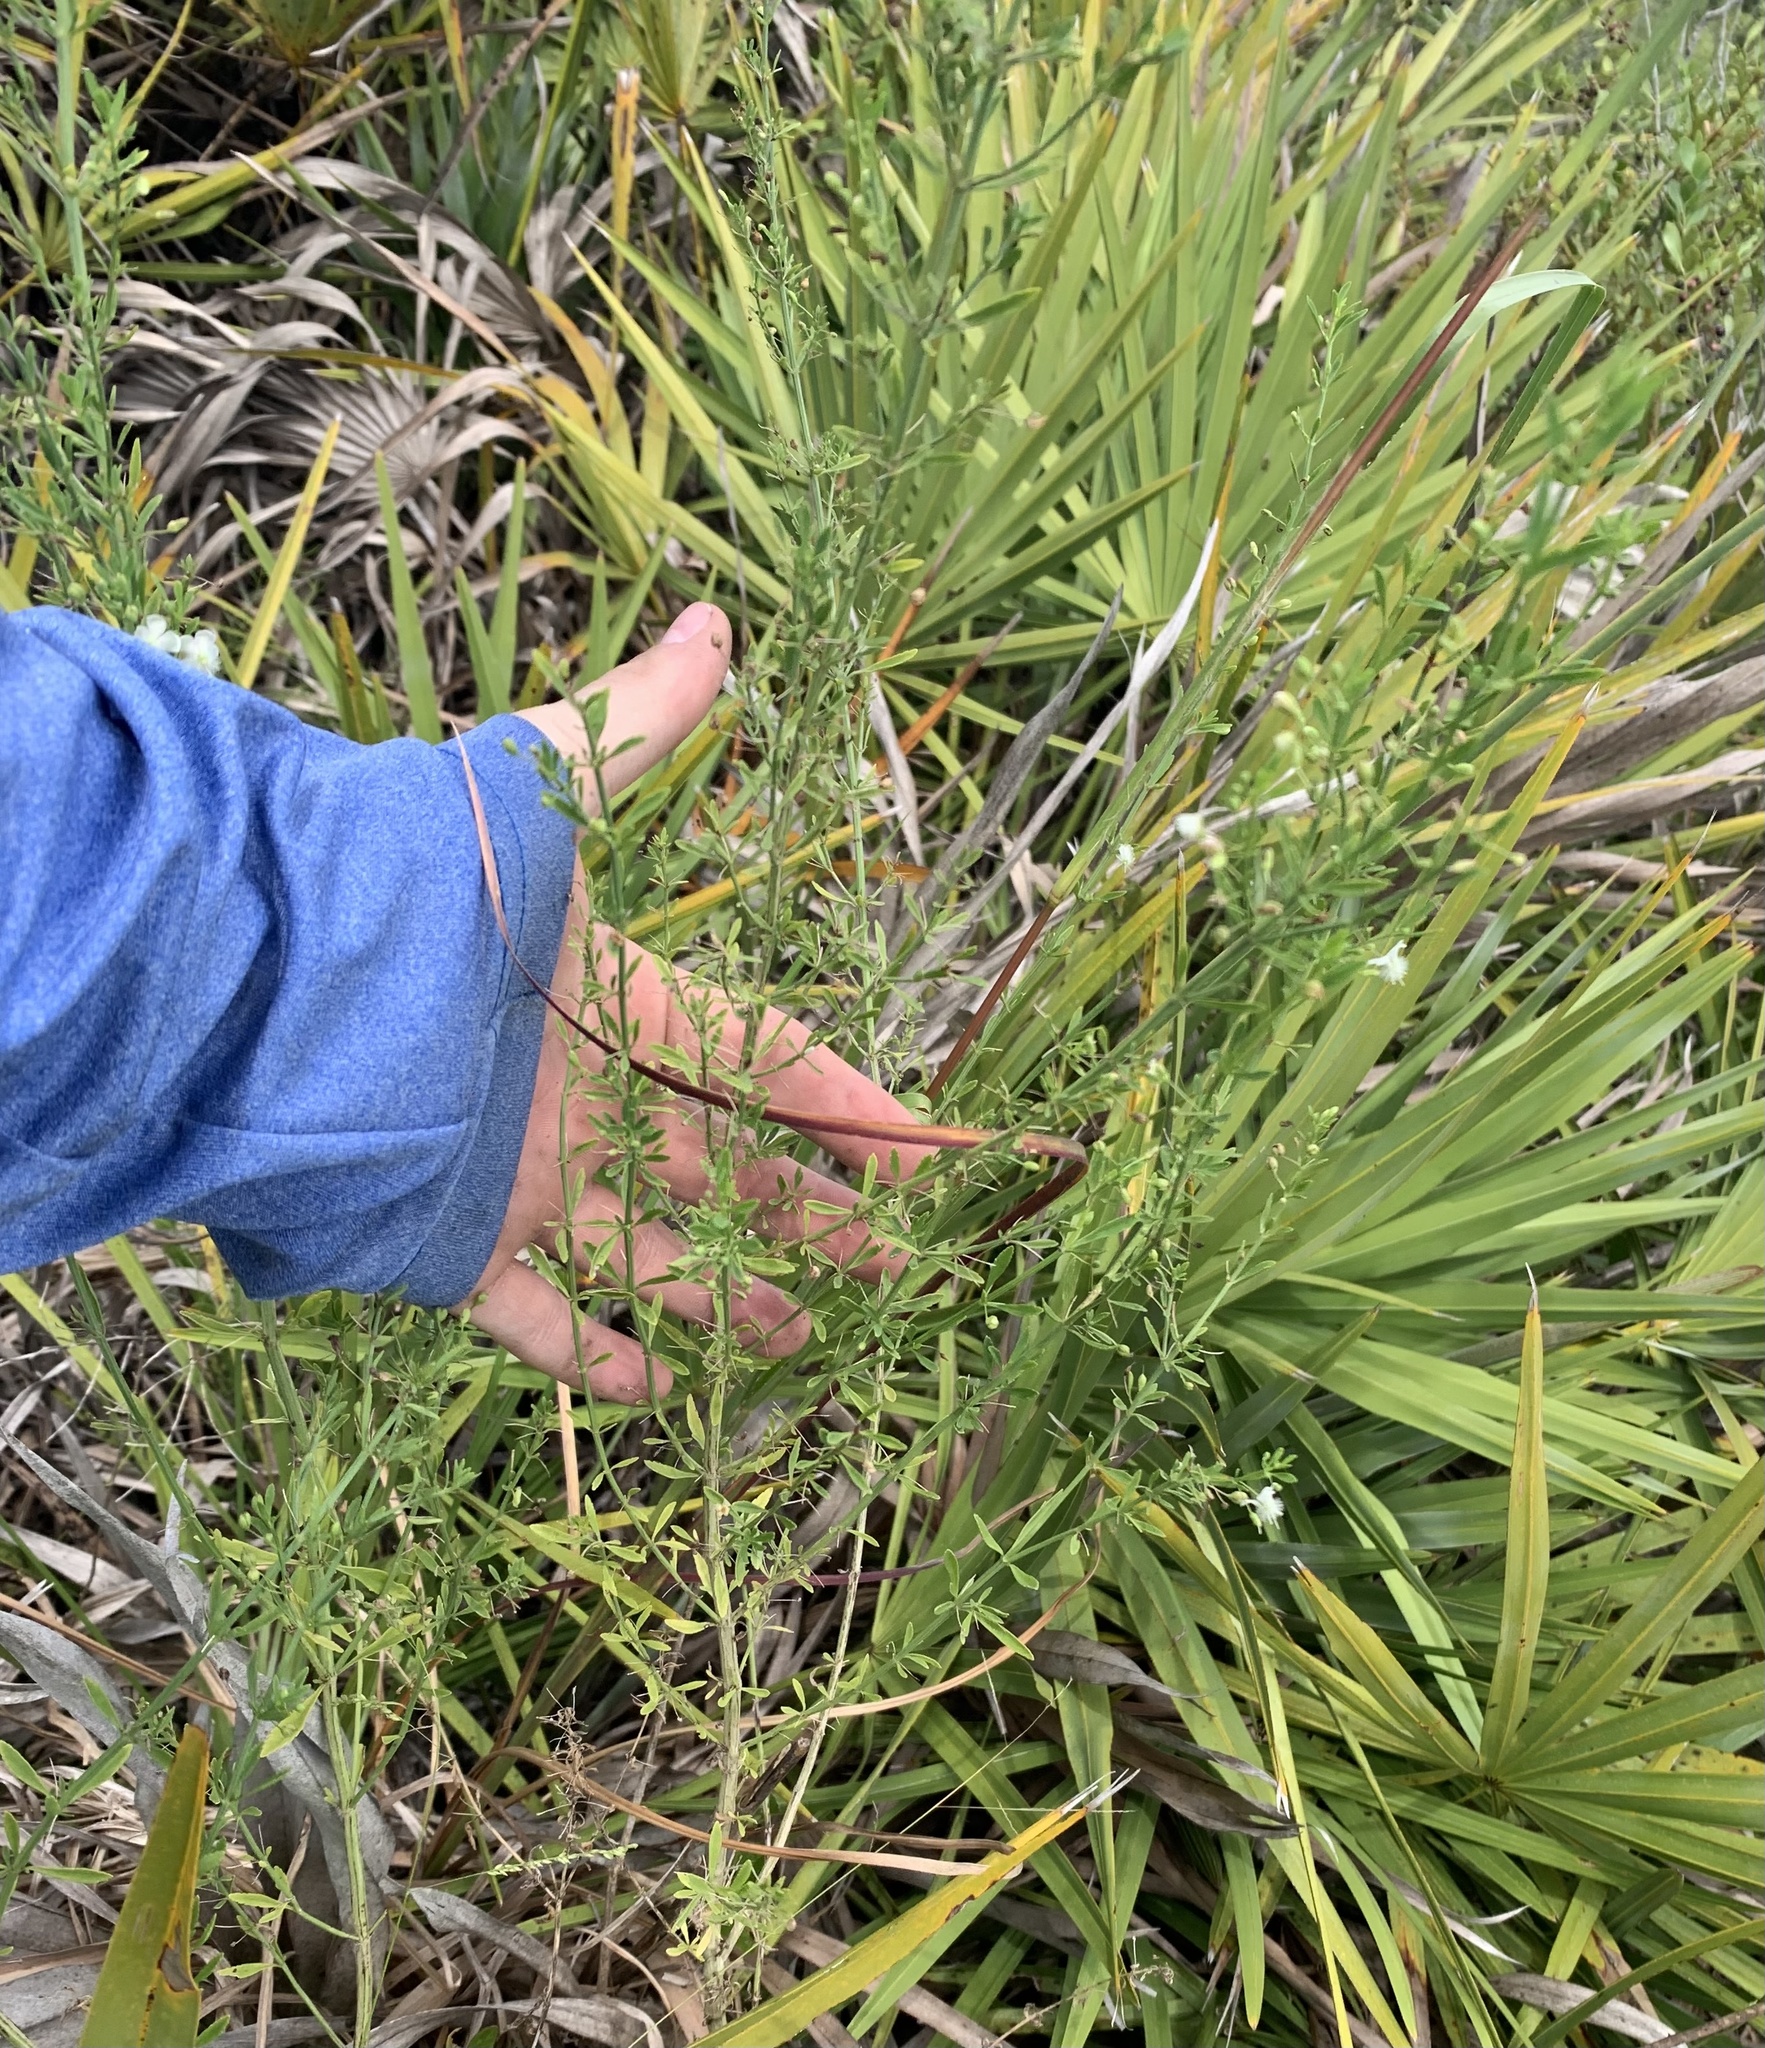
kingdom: Plantae
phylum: Tracheophyta
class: Magnoliopsida
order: Lamiales
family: Plantaginaceae
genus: Scoparia
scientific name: Scoparia dulcis
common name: Scoparia-weed
